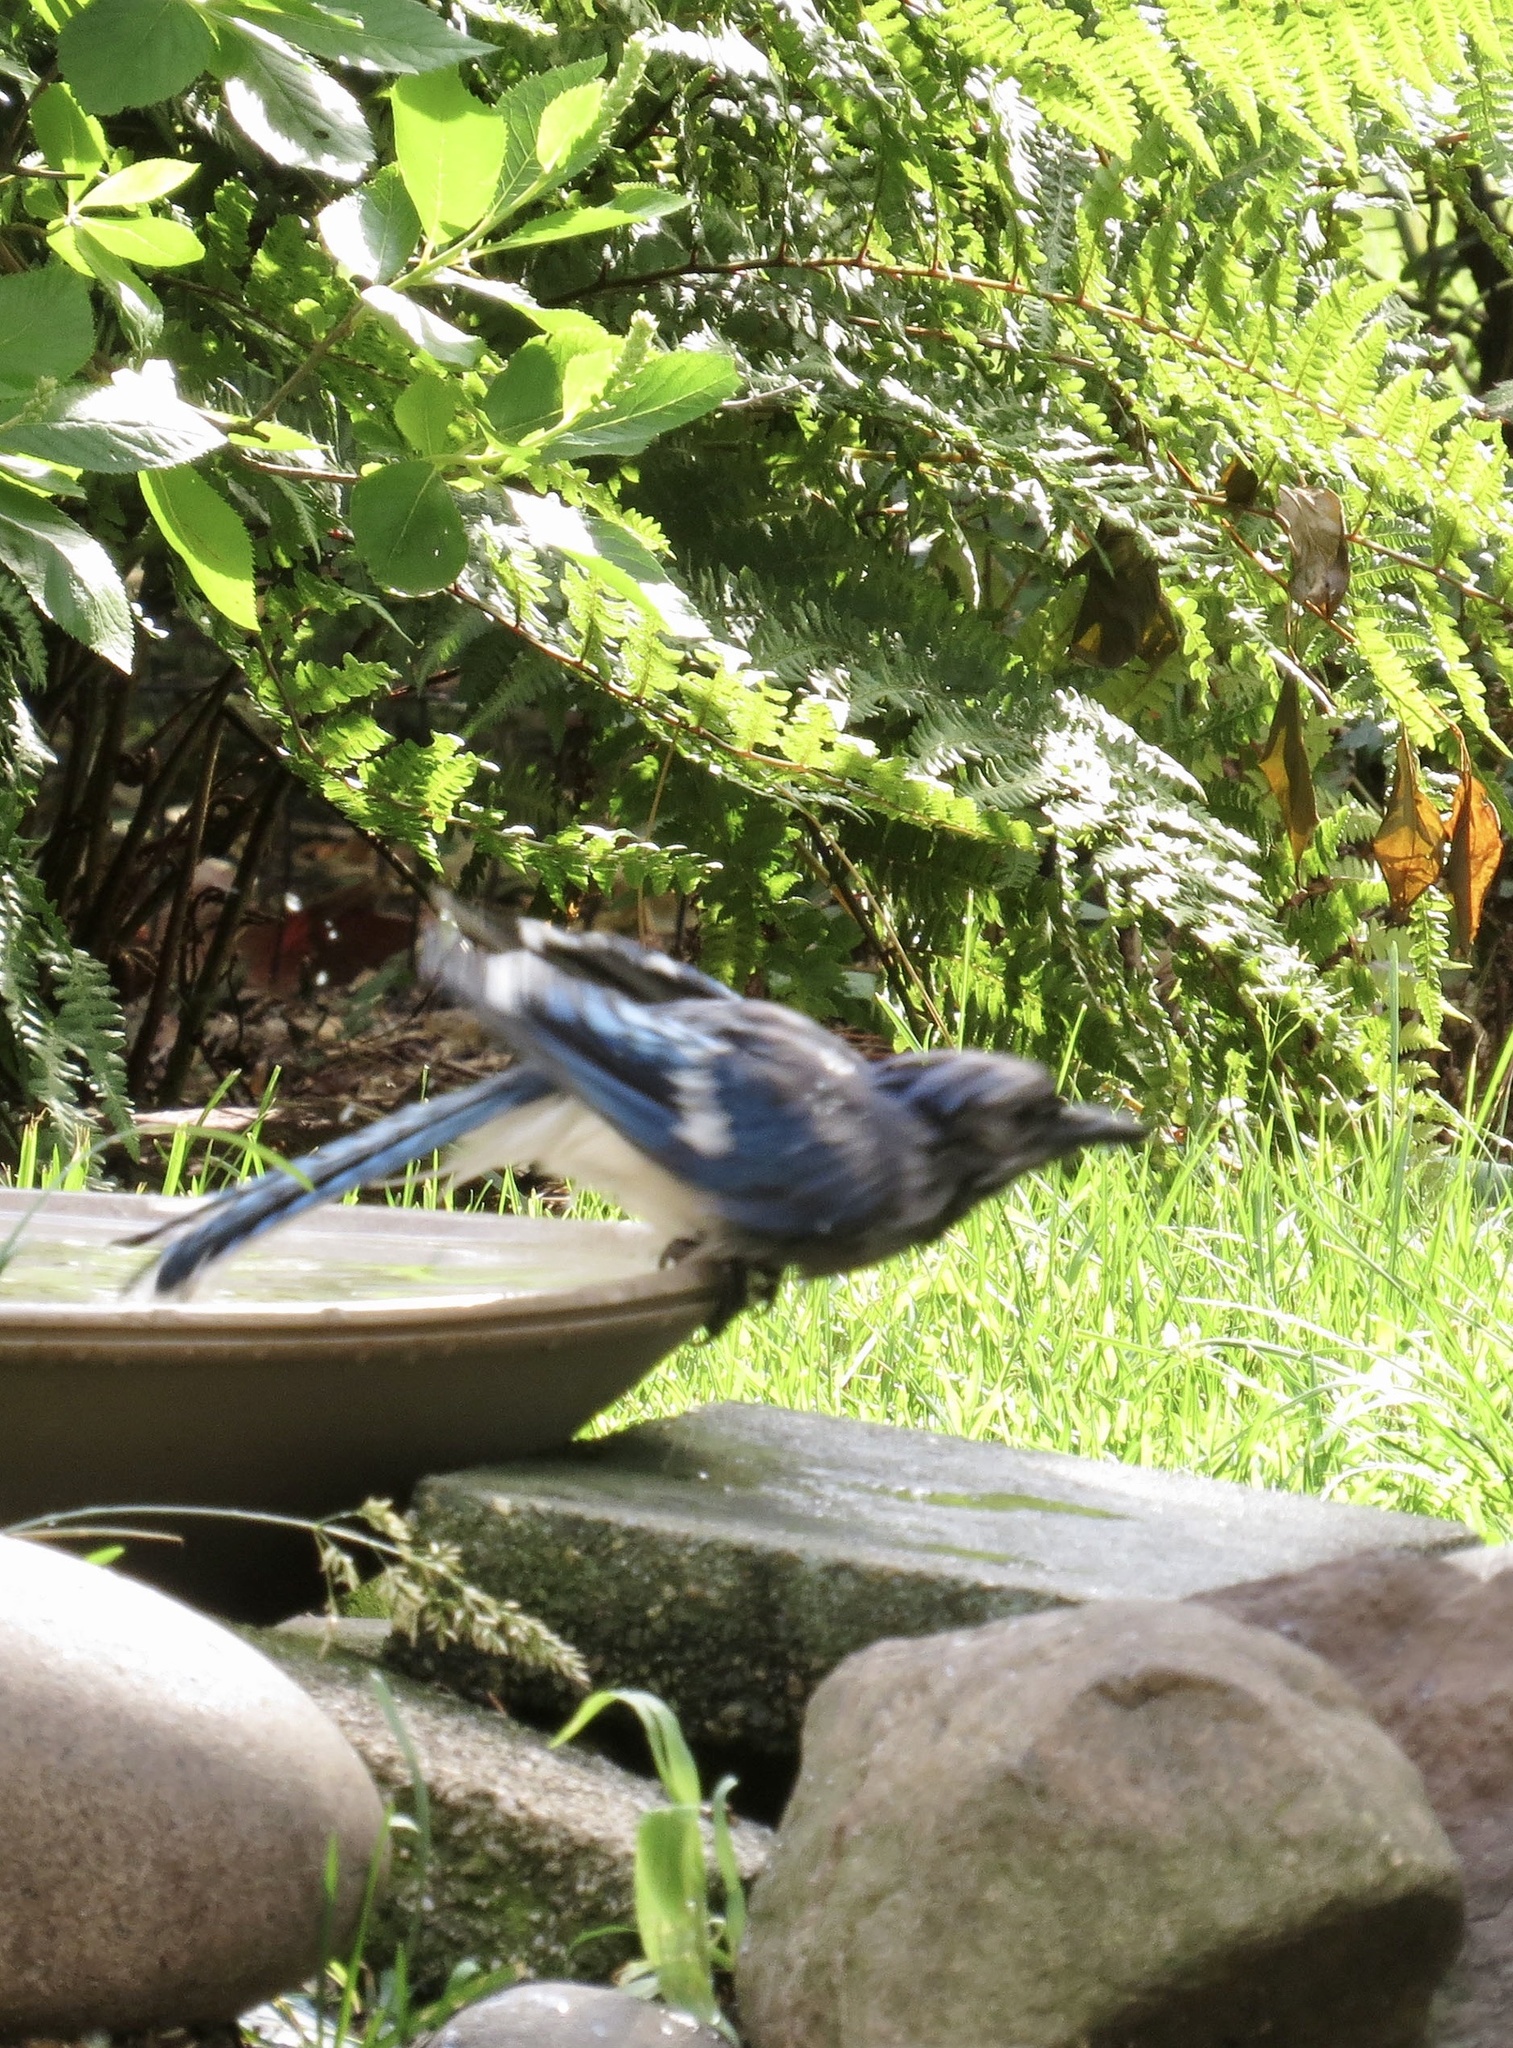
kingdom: Animalia
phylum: Chordata
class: Aves
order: Passeriformes
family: Corvidae
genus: Cyanocitta
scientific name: Cyanocitta cristata
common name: Blue jay
